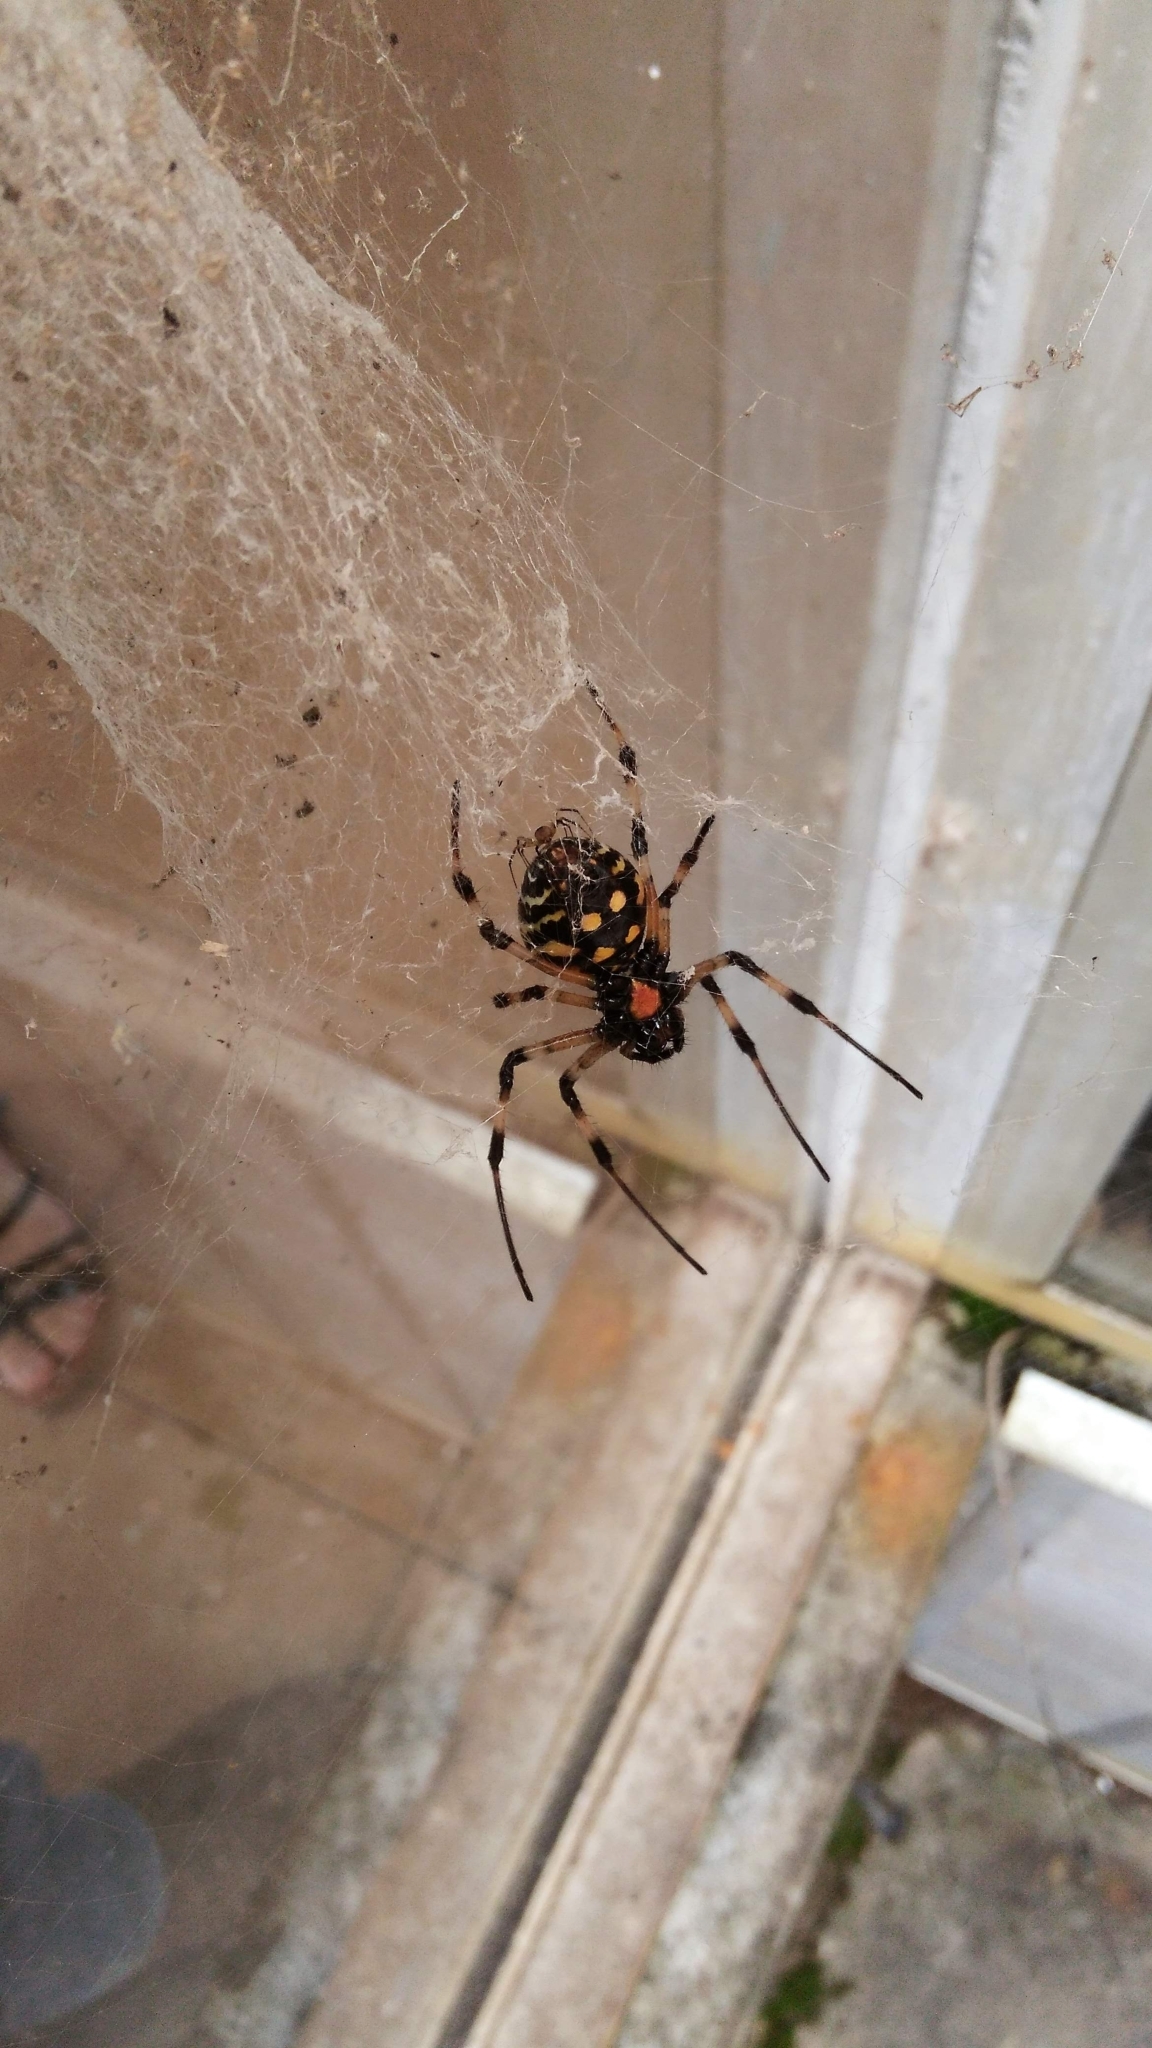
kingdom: Animalia
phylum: Arthropoda
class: Arachnida
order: Araneae
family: Araneidae
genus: Nephilingis
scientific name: Nephilingis cruentata
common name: African hermit spider
